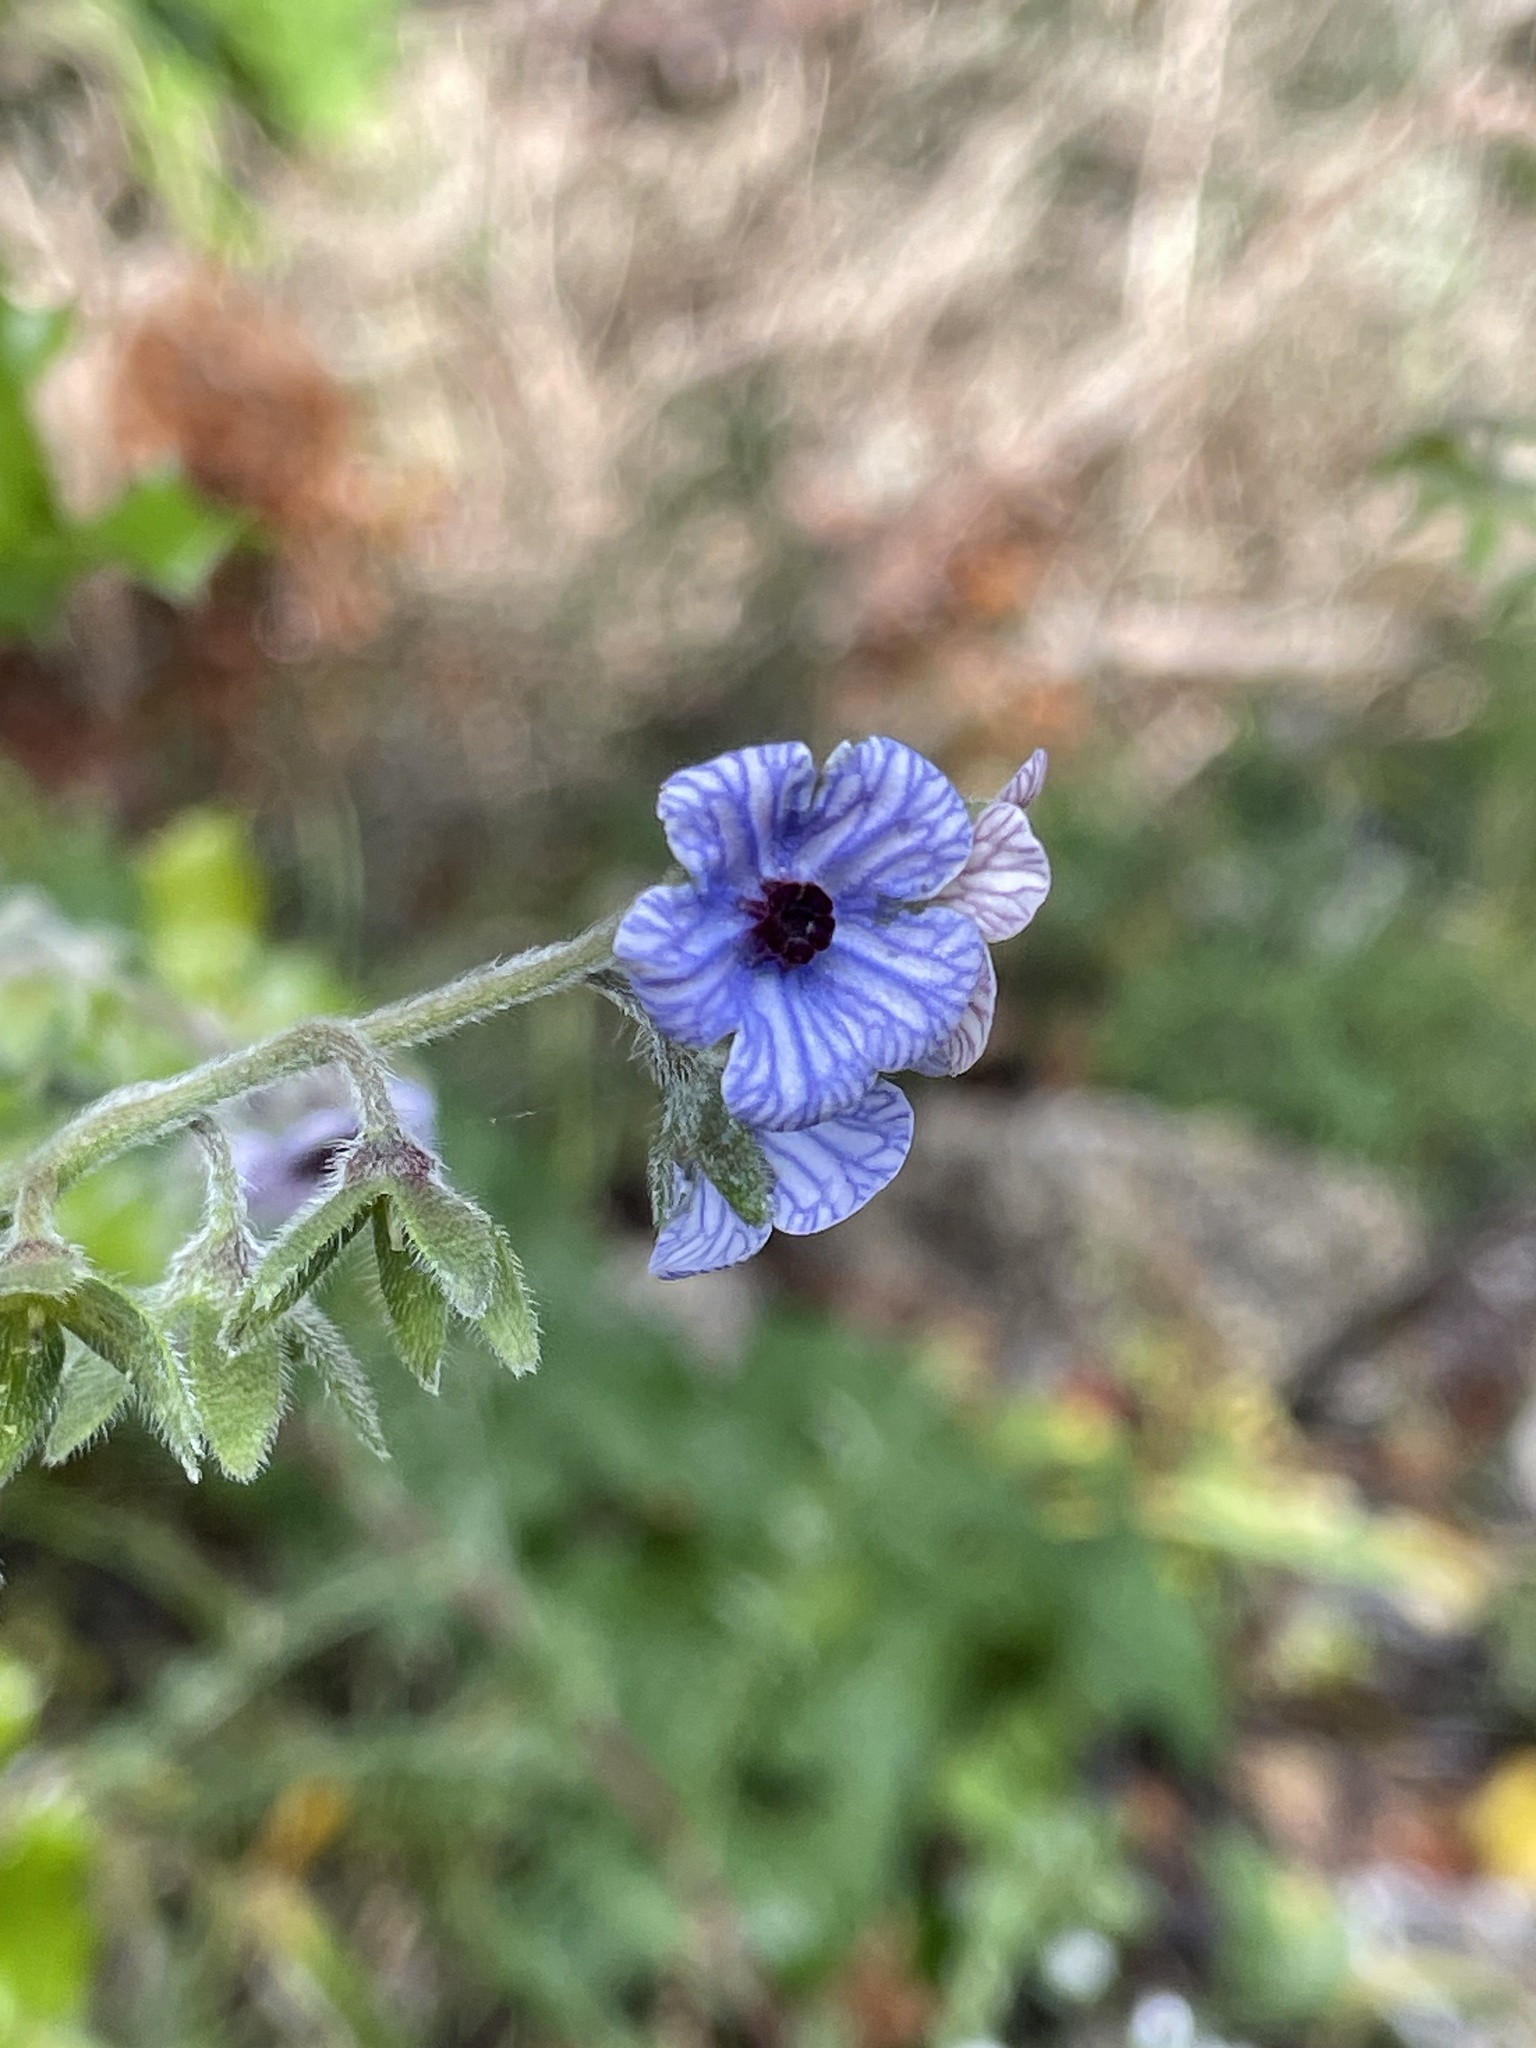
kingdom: Plantae
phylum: Tracheophyta
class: Magnoliopsida
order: Boraginales
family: Boraginaceae
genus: Cynoglossum
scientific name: Cynoglossum creticum
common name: Blue hound's tongue
